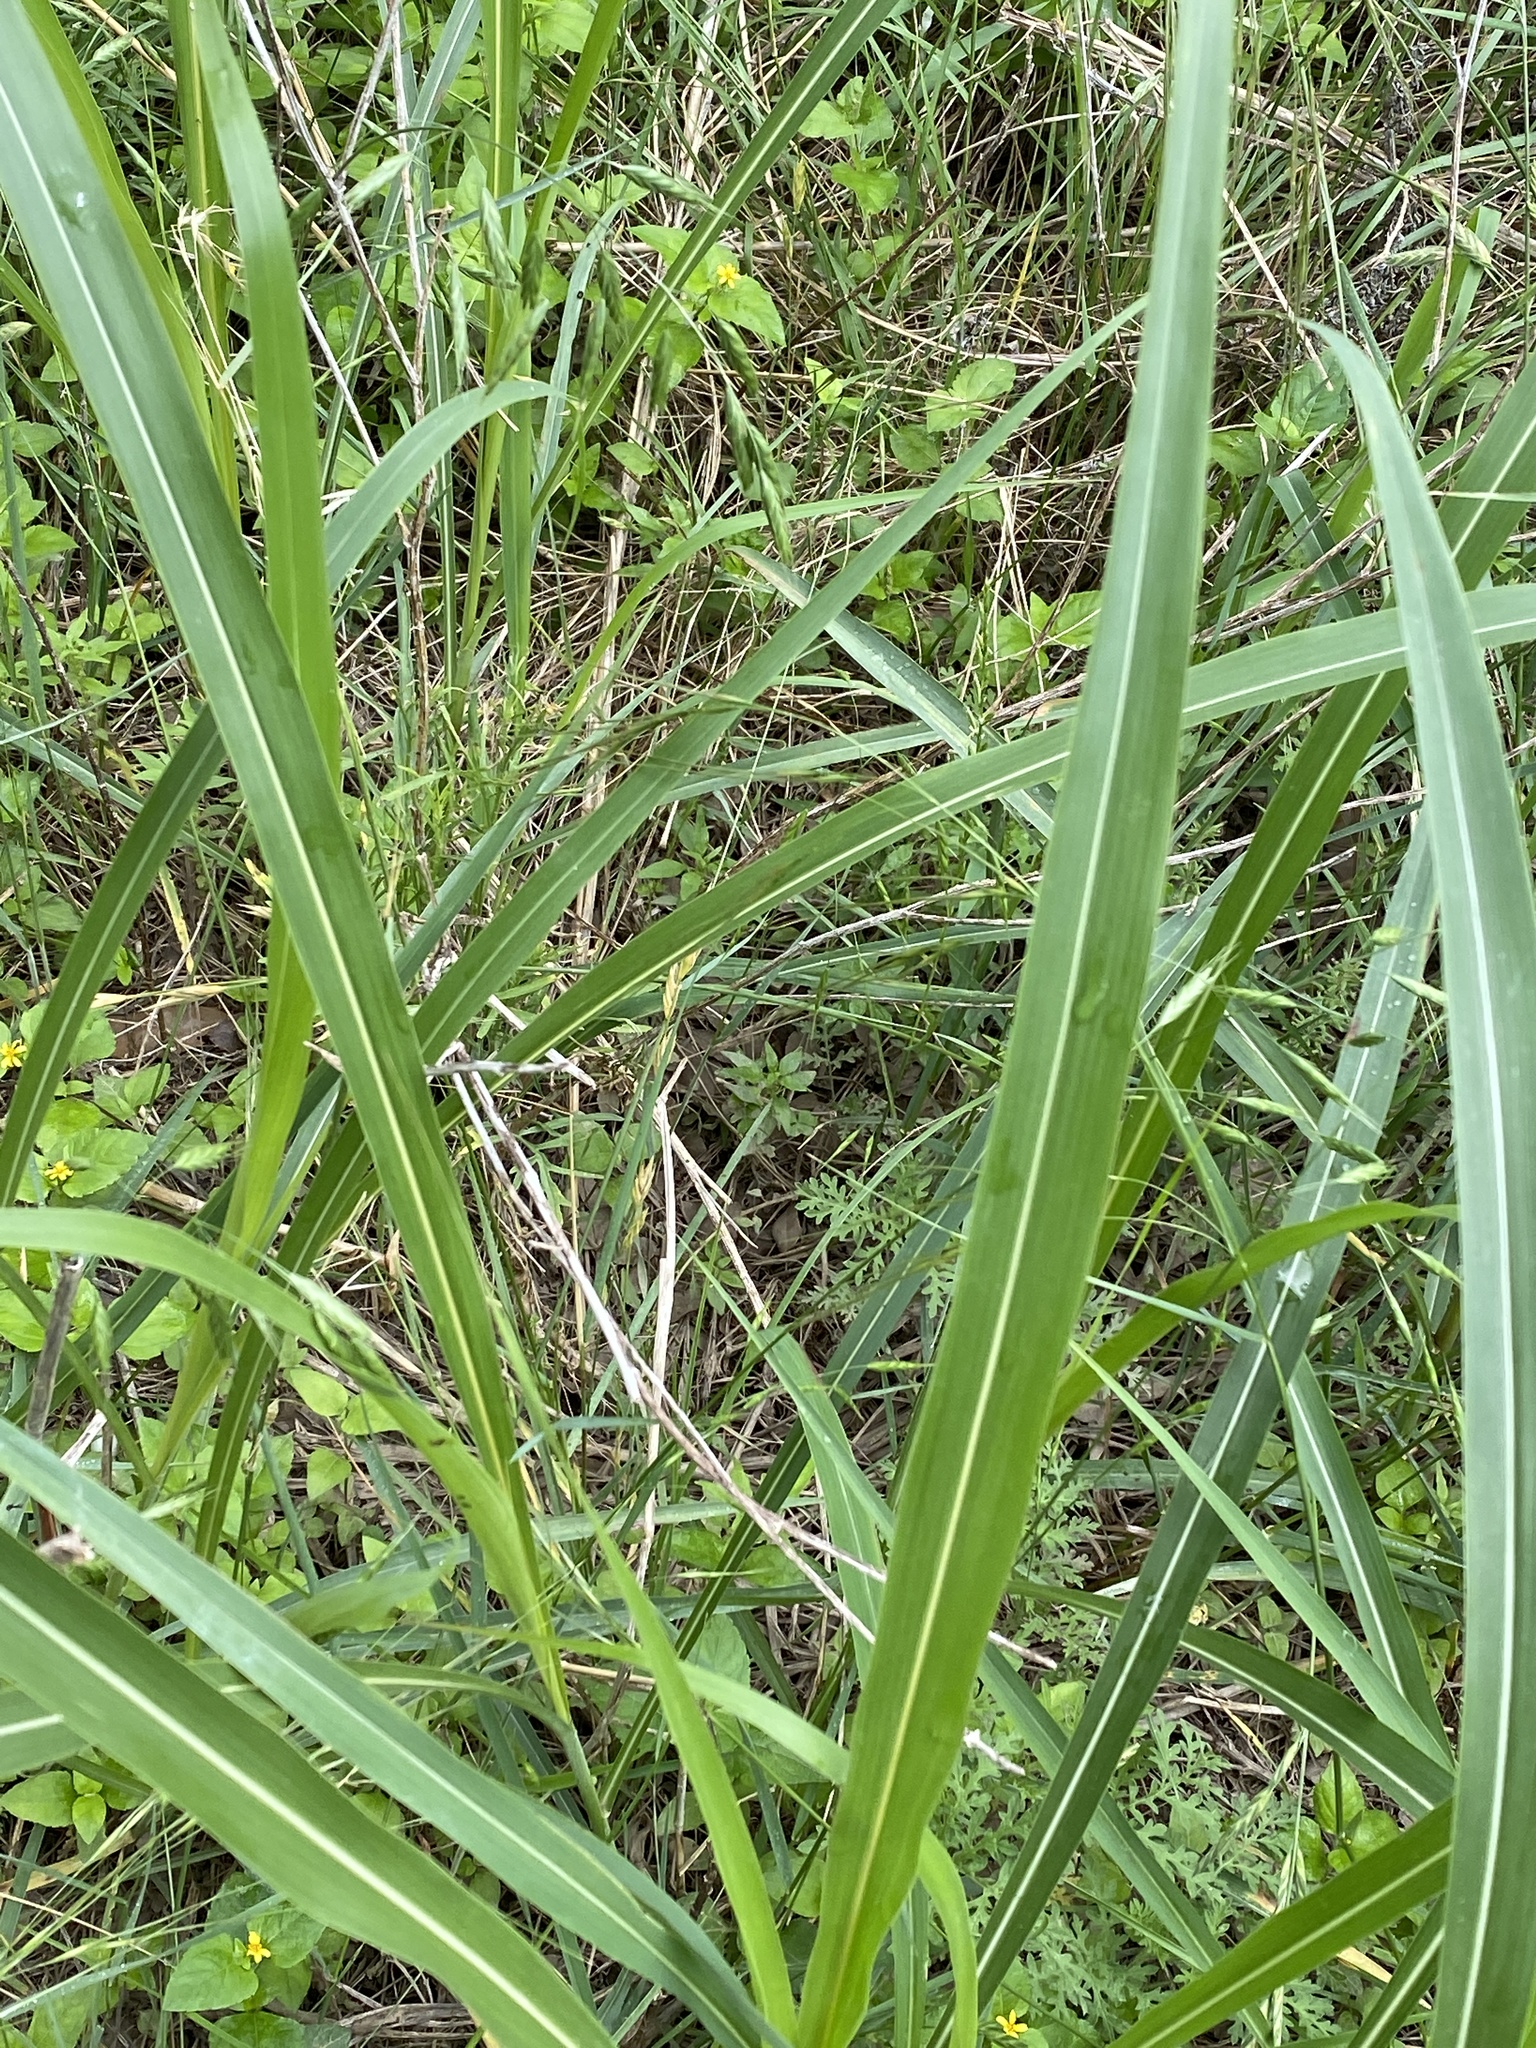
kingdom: Plantae
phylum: Tracheophyta
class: Liliopsida
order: Poales
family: Poaceae
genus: Sorghum
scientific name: Sorghum halepense
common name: Johnson-grass
